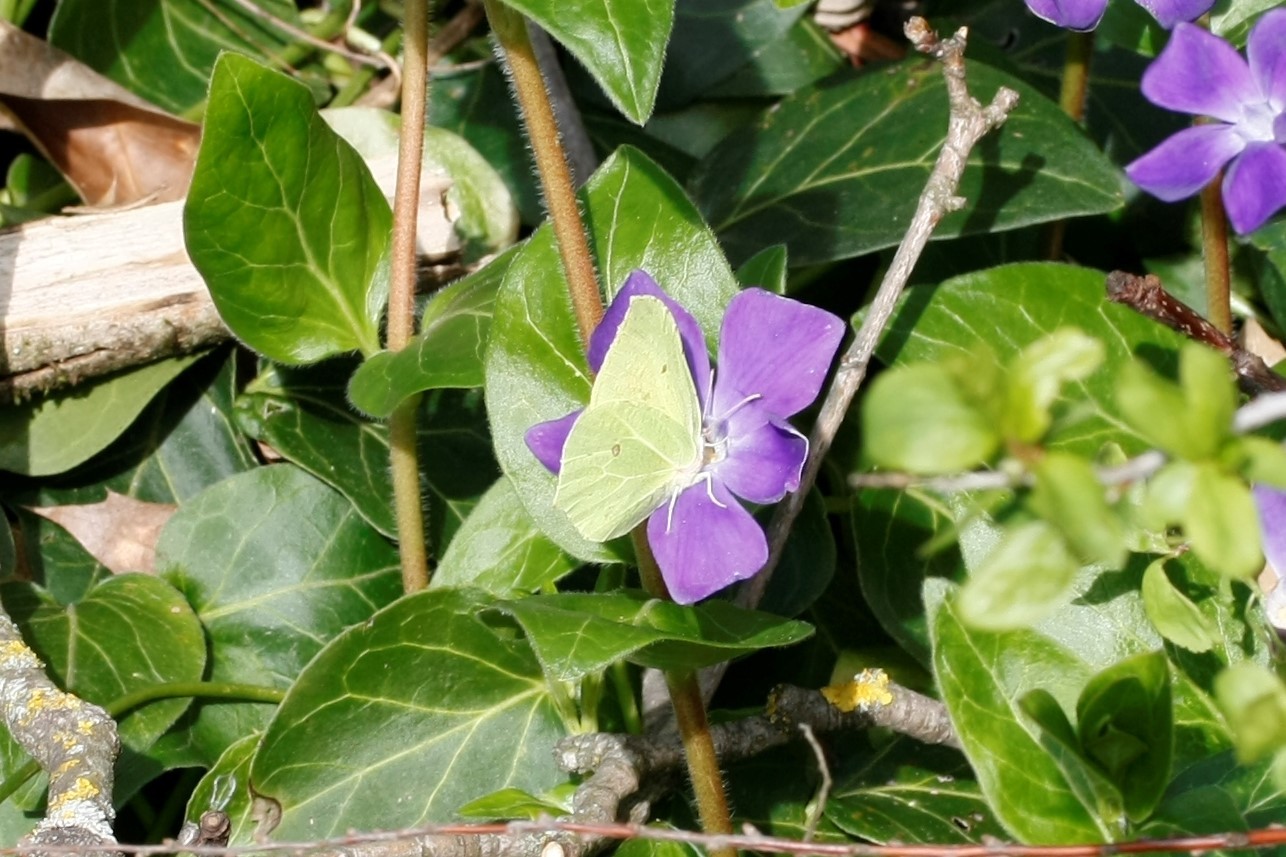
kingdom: Animalia
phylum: Arthropoda
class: Insecta
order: Lepidoptera
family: Pieridae
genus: Gonepteryx
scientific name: Gonepteryx rhamni
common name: Brimstone
